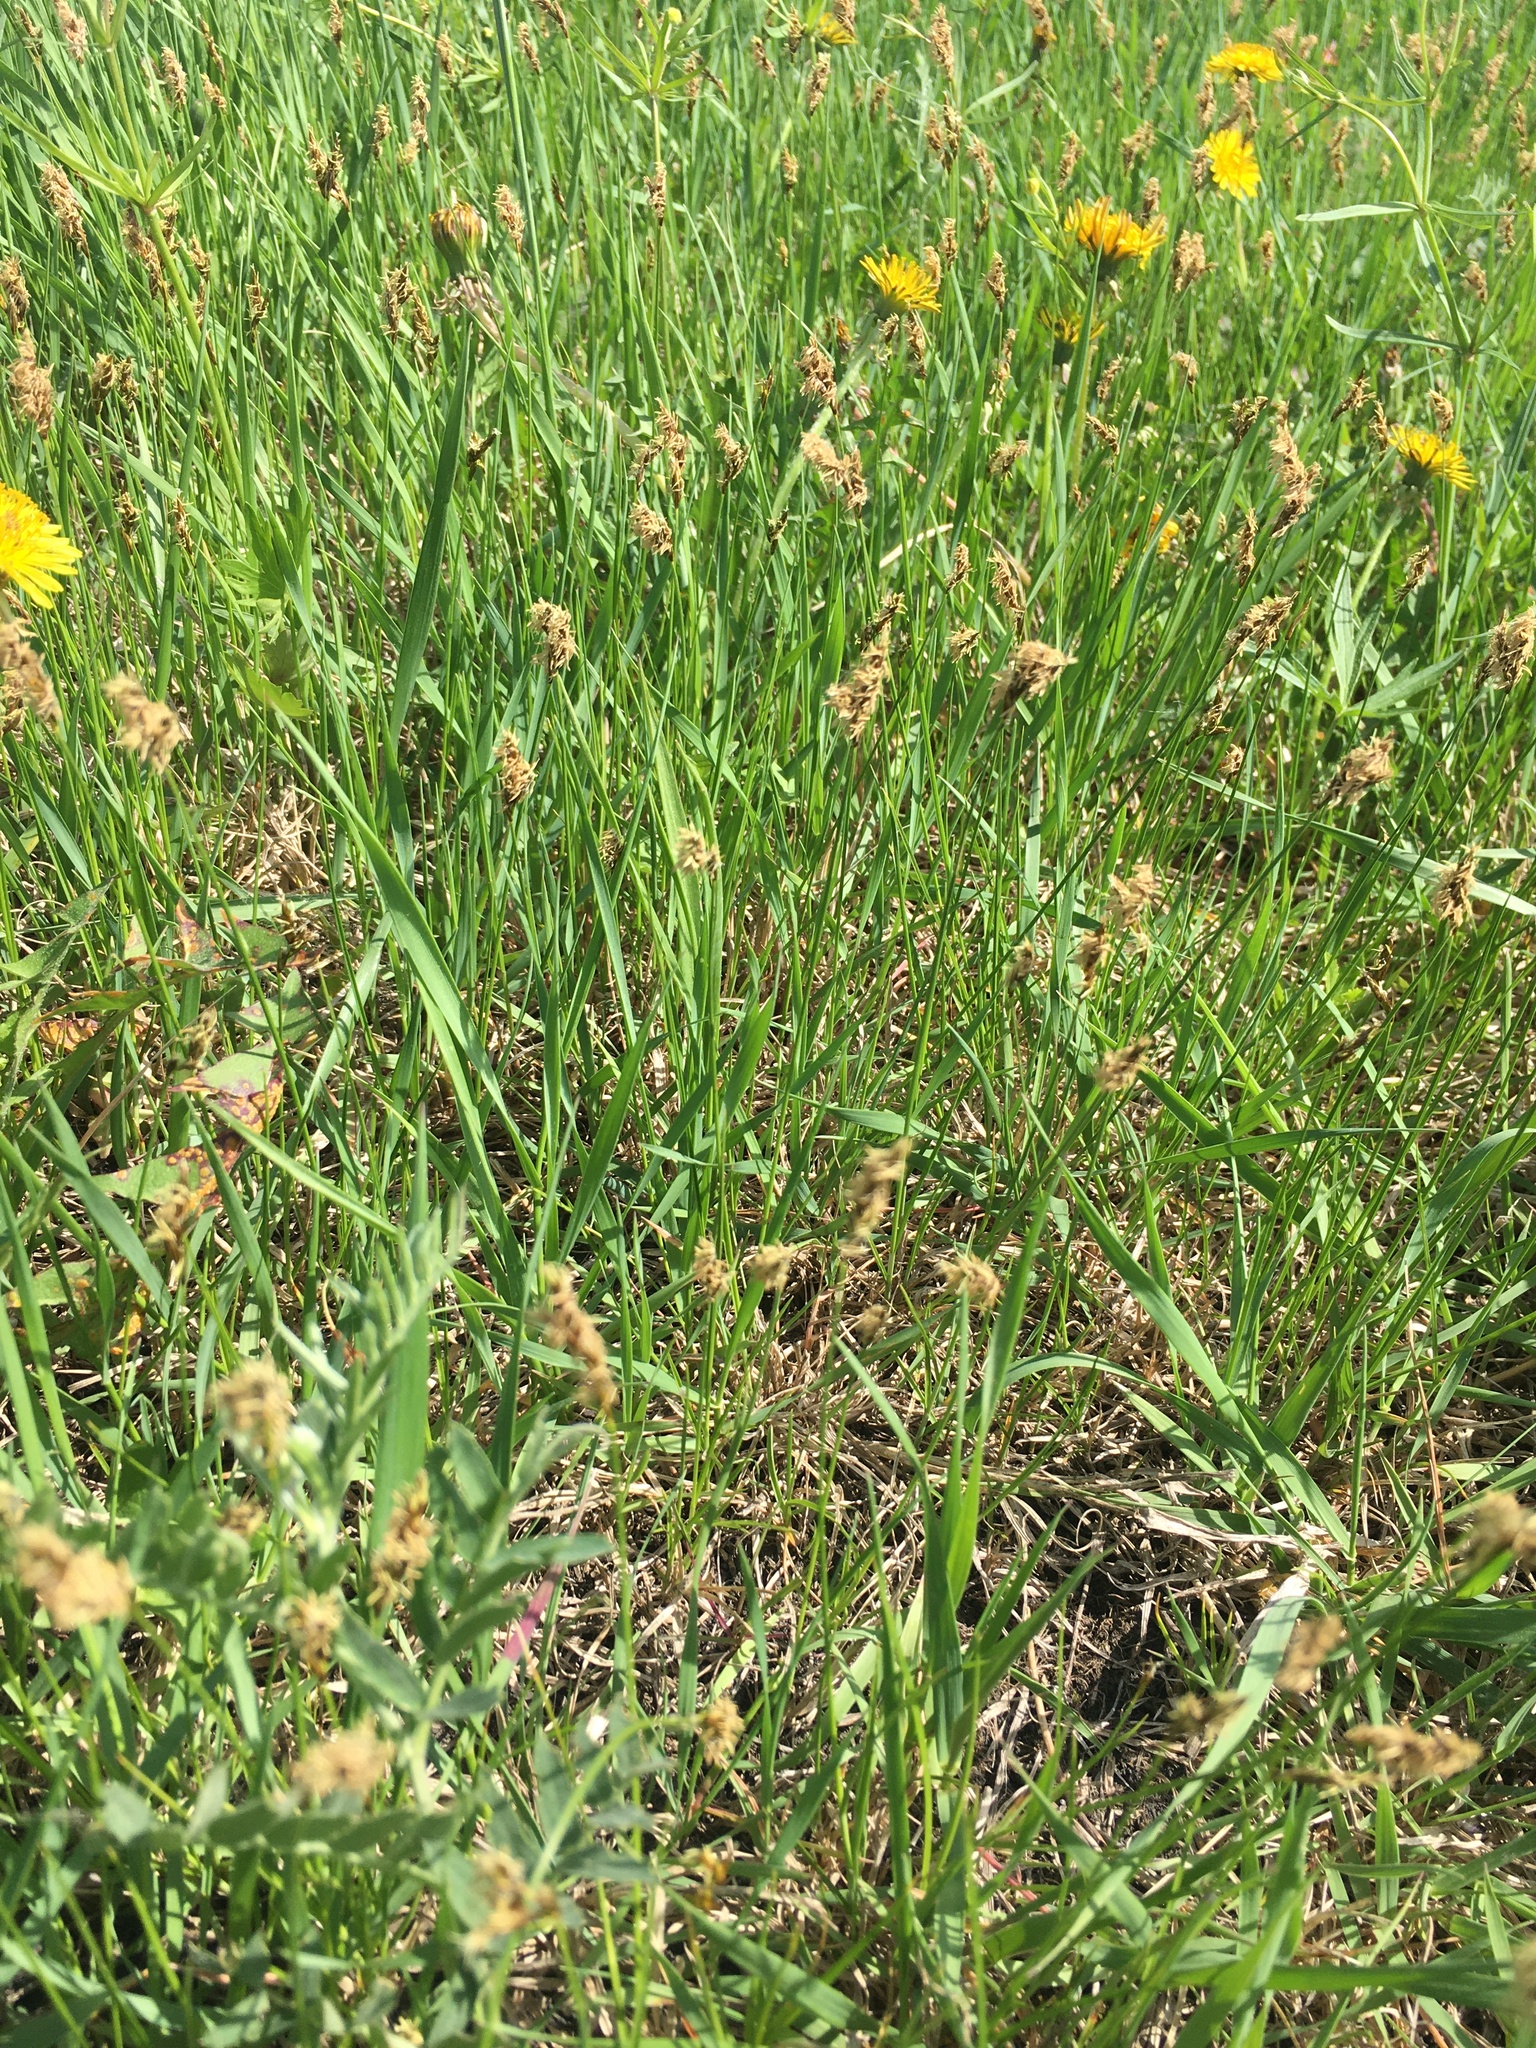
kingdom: Plantae
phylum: Tracheophyta
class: Liliopsida
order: Poales
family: Cyperaceae
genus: Carex
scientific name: Carex praecox
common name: Early sedge
